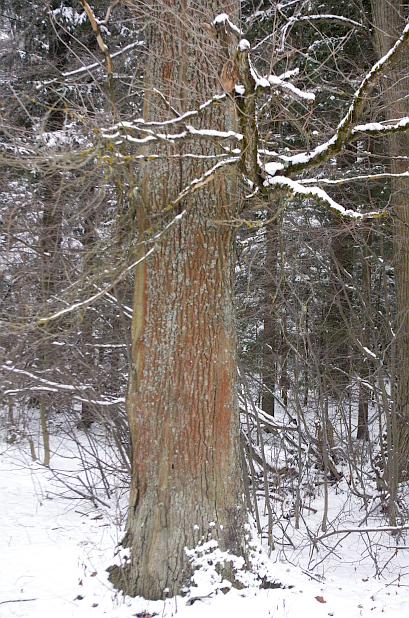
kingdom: Plantae
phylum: Tracheophyta
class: Magnoliopsida
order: Fagales
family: Fagaceae
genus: Quercus
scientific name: Quercus robur
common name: Pedunculate oak
